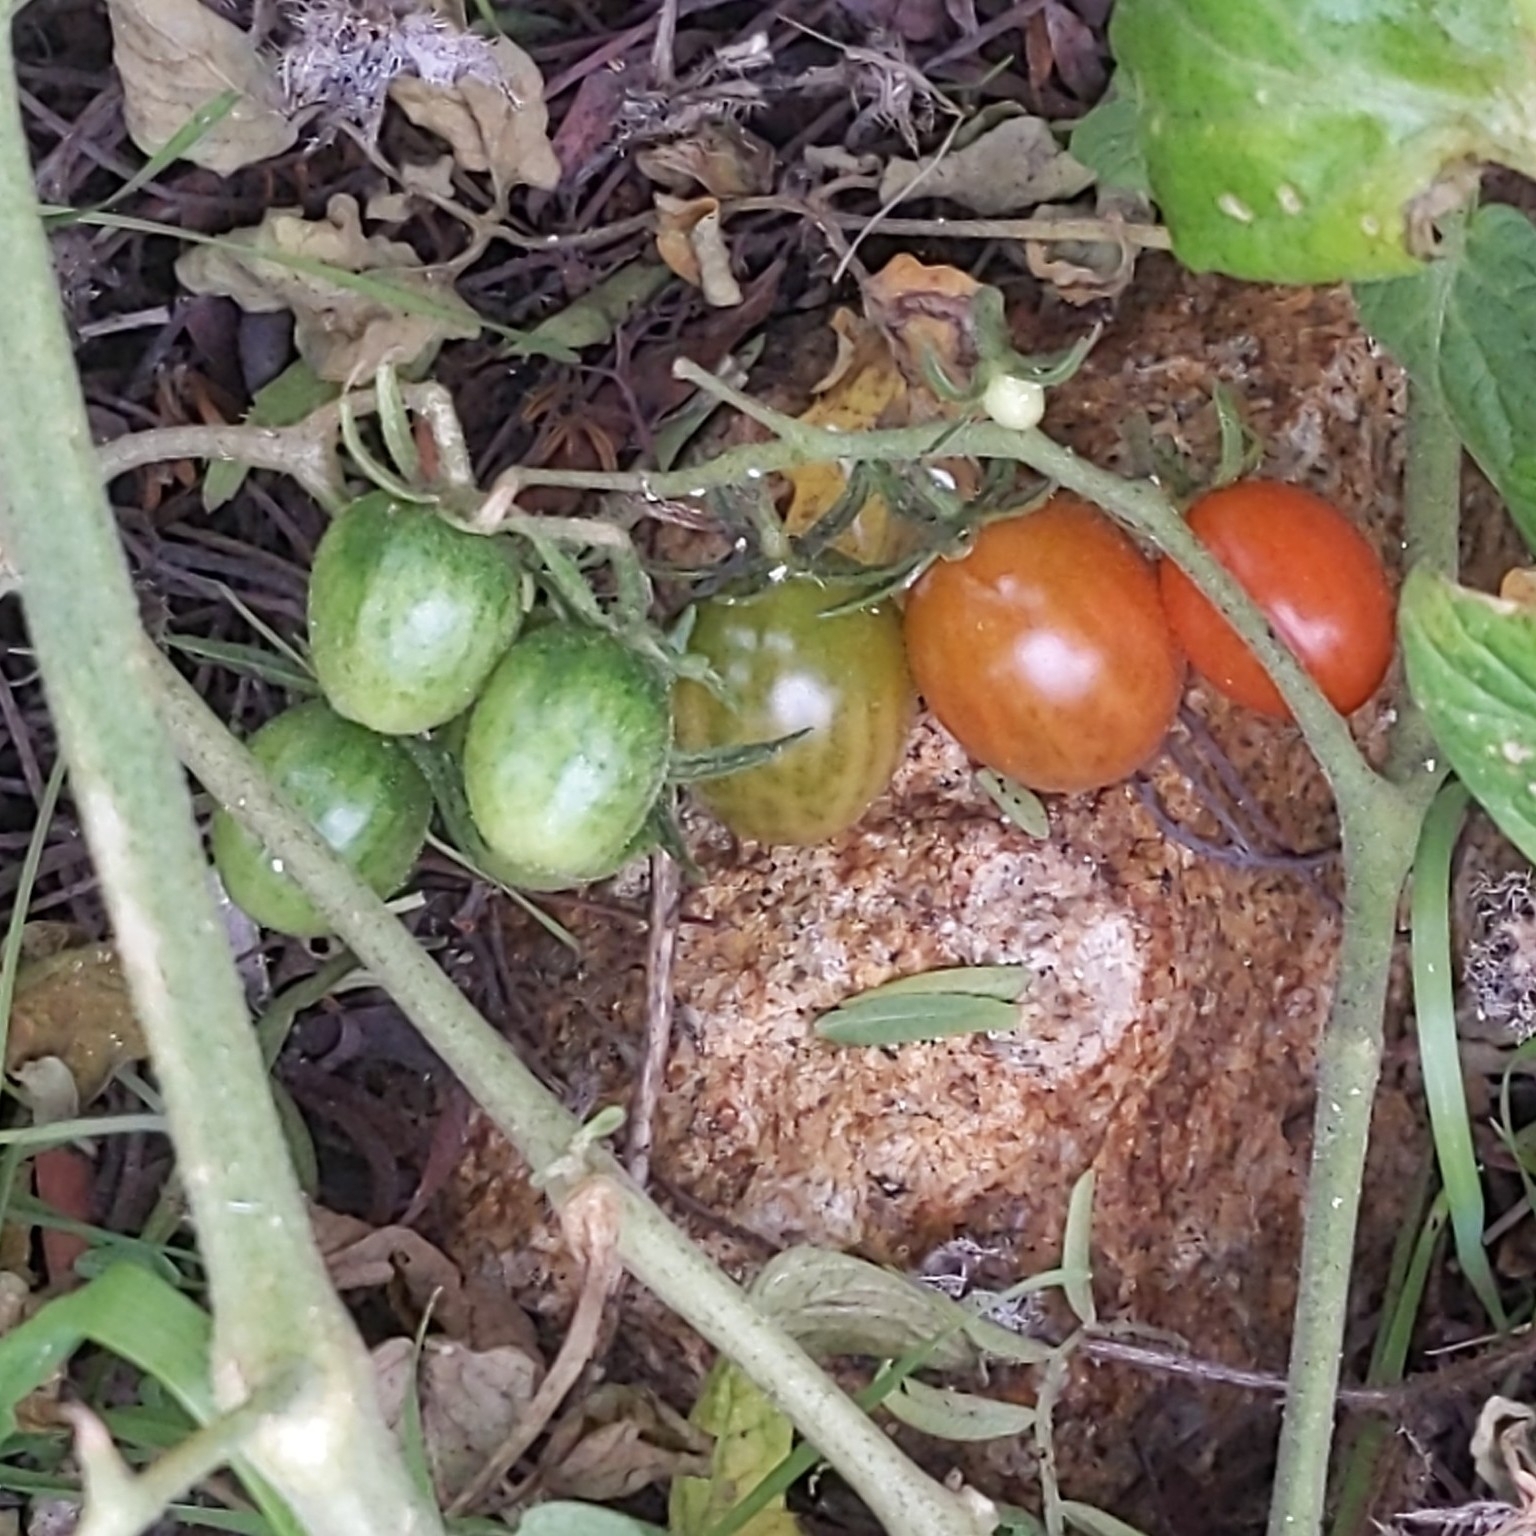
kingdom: Plantae
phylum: Tracheophyta
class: Magnoliopsida
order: Solanales
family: Solanaceae
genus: Solanum
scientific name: Solanum lycopersicum
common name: Garden tomato
